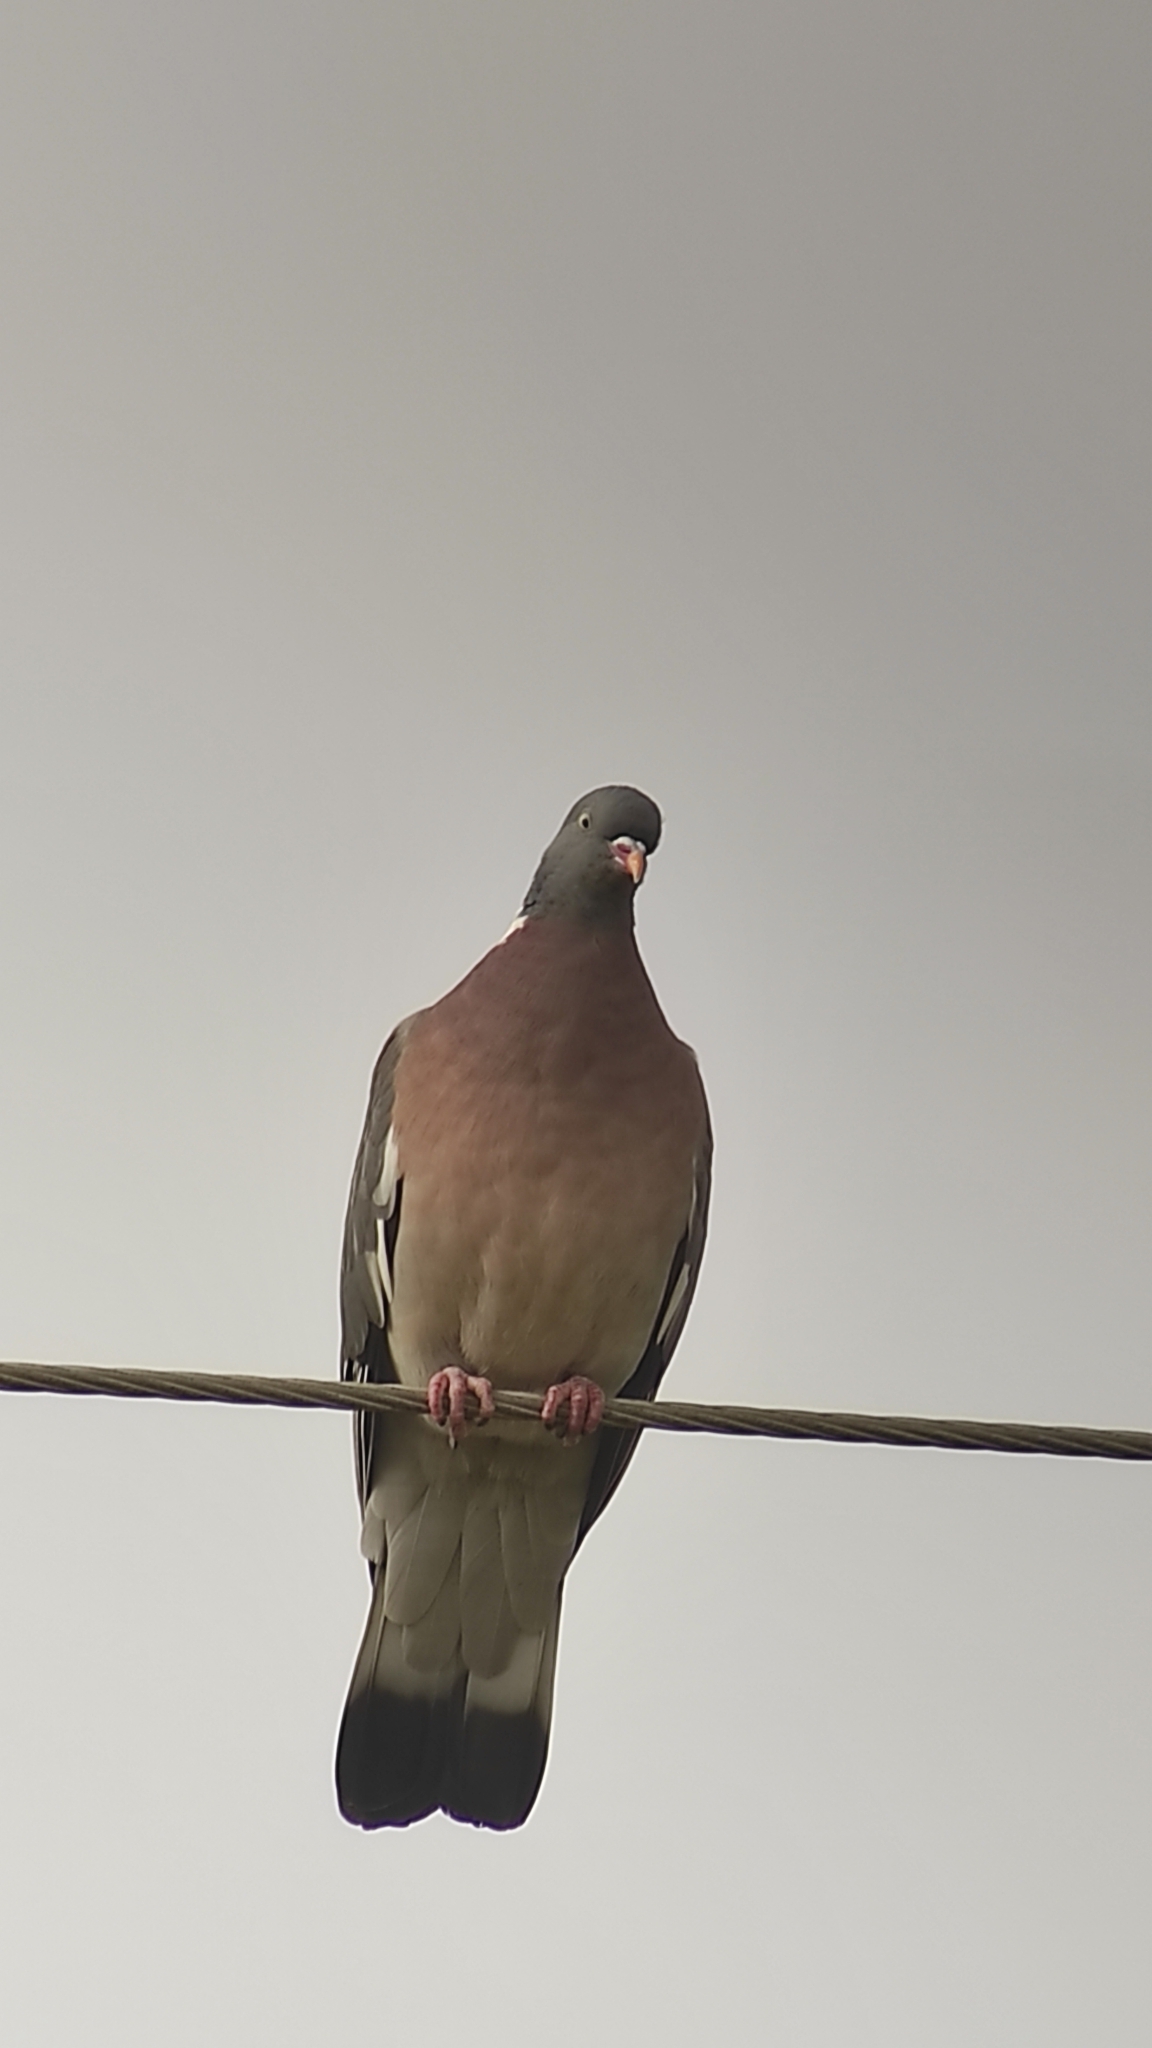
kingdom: Animalia
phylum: Chordata
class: Aves
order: Columbiformes
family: Columbidae
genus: Columba
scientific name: Columba palumbus
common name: Common wood pigeon
